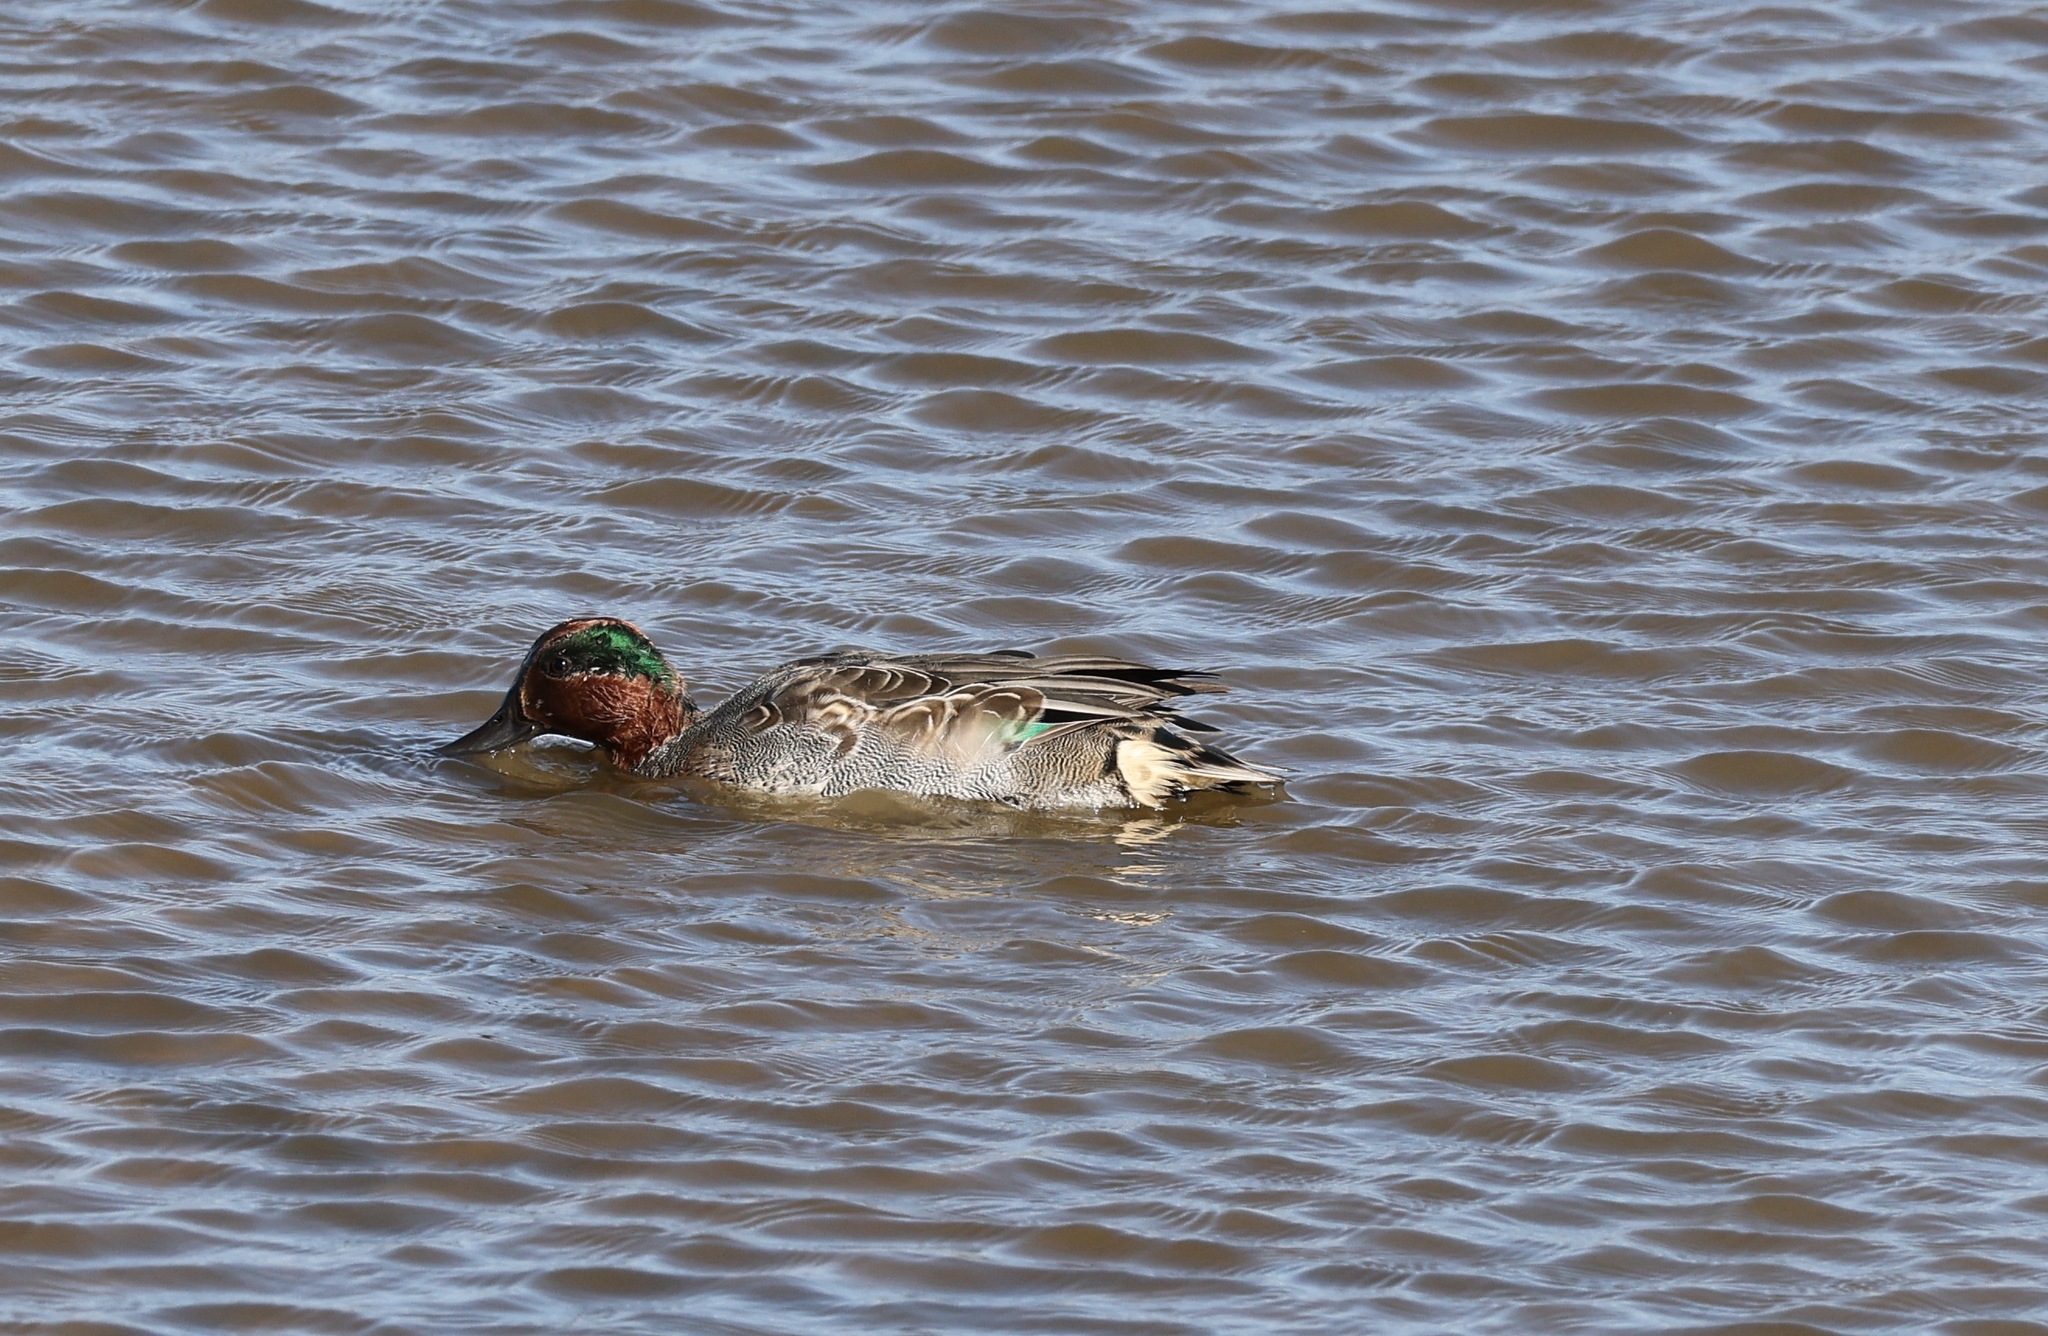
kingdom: Animalia
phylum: Chordata
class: Aves
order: Anseriformes
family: Anatidae
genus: Anas
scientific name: Anas crecca
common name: Eurasian teal
